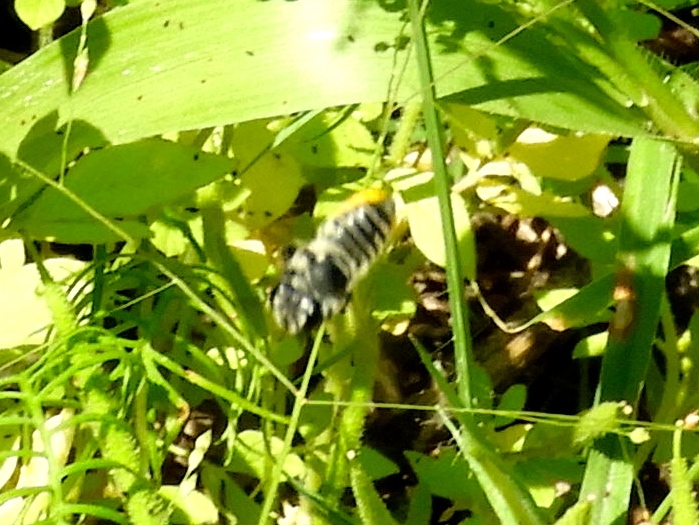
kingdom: Animalia
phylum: Arthropoda
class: Insecta
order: Hymenoptera
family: Megachilidae
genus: Megachile
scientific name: Megachile
